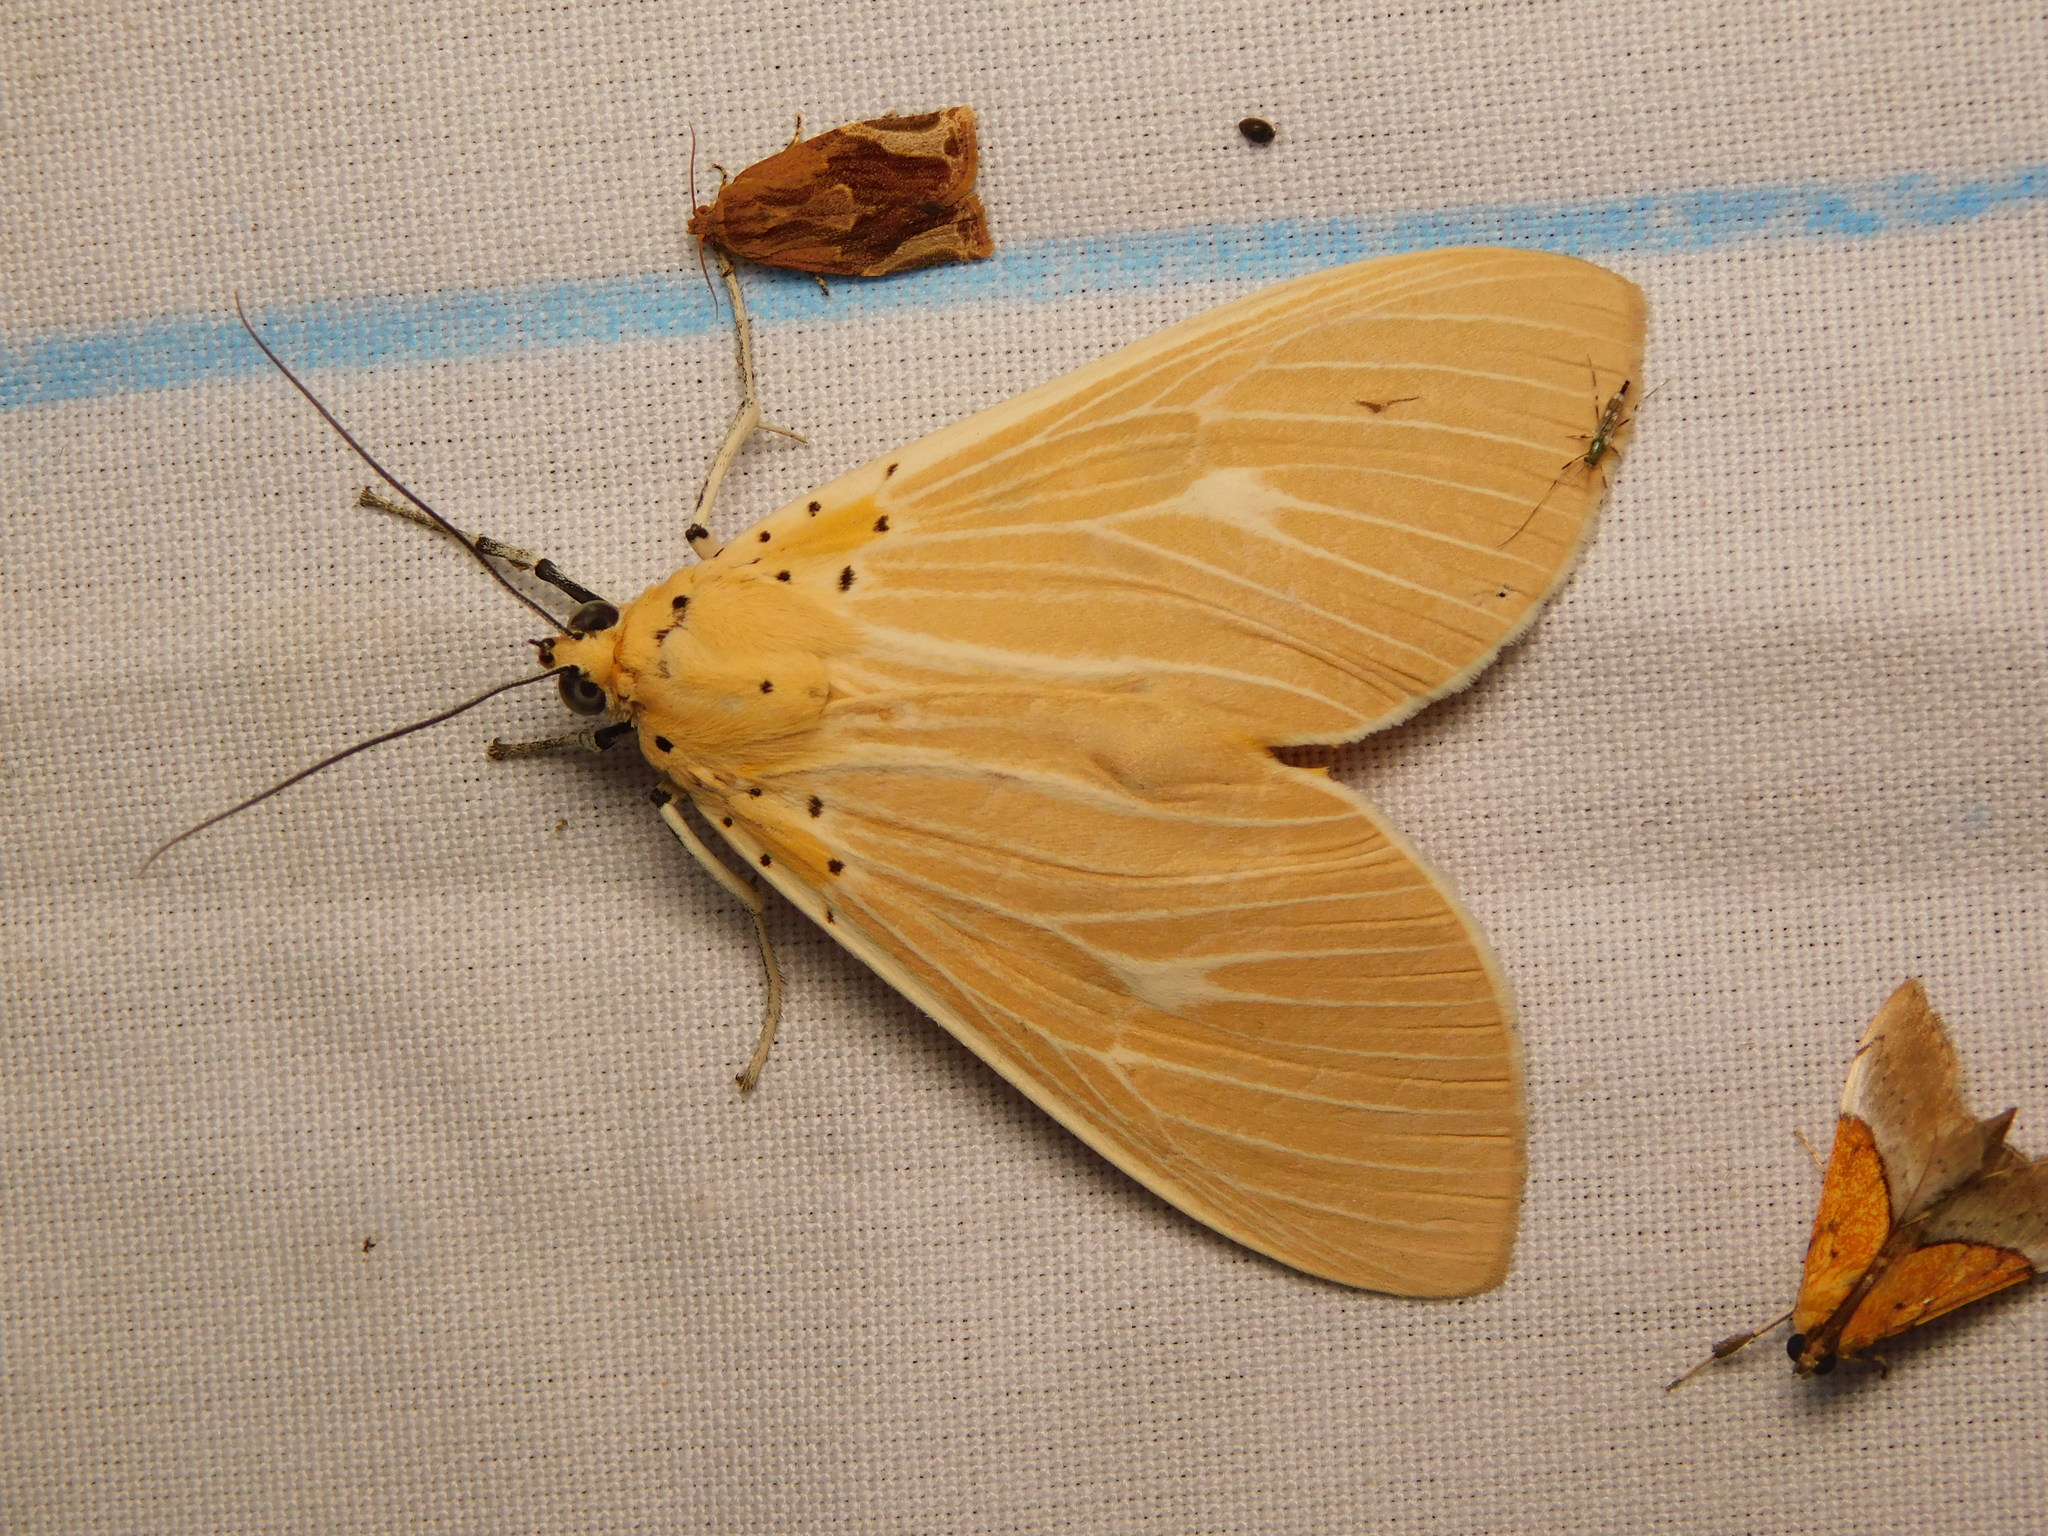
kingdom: Animalia
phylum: Arthropoda
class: Insecta
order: Lepidoptera
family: Erebidae
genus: Asota
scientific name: Asota producta
